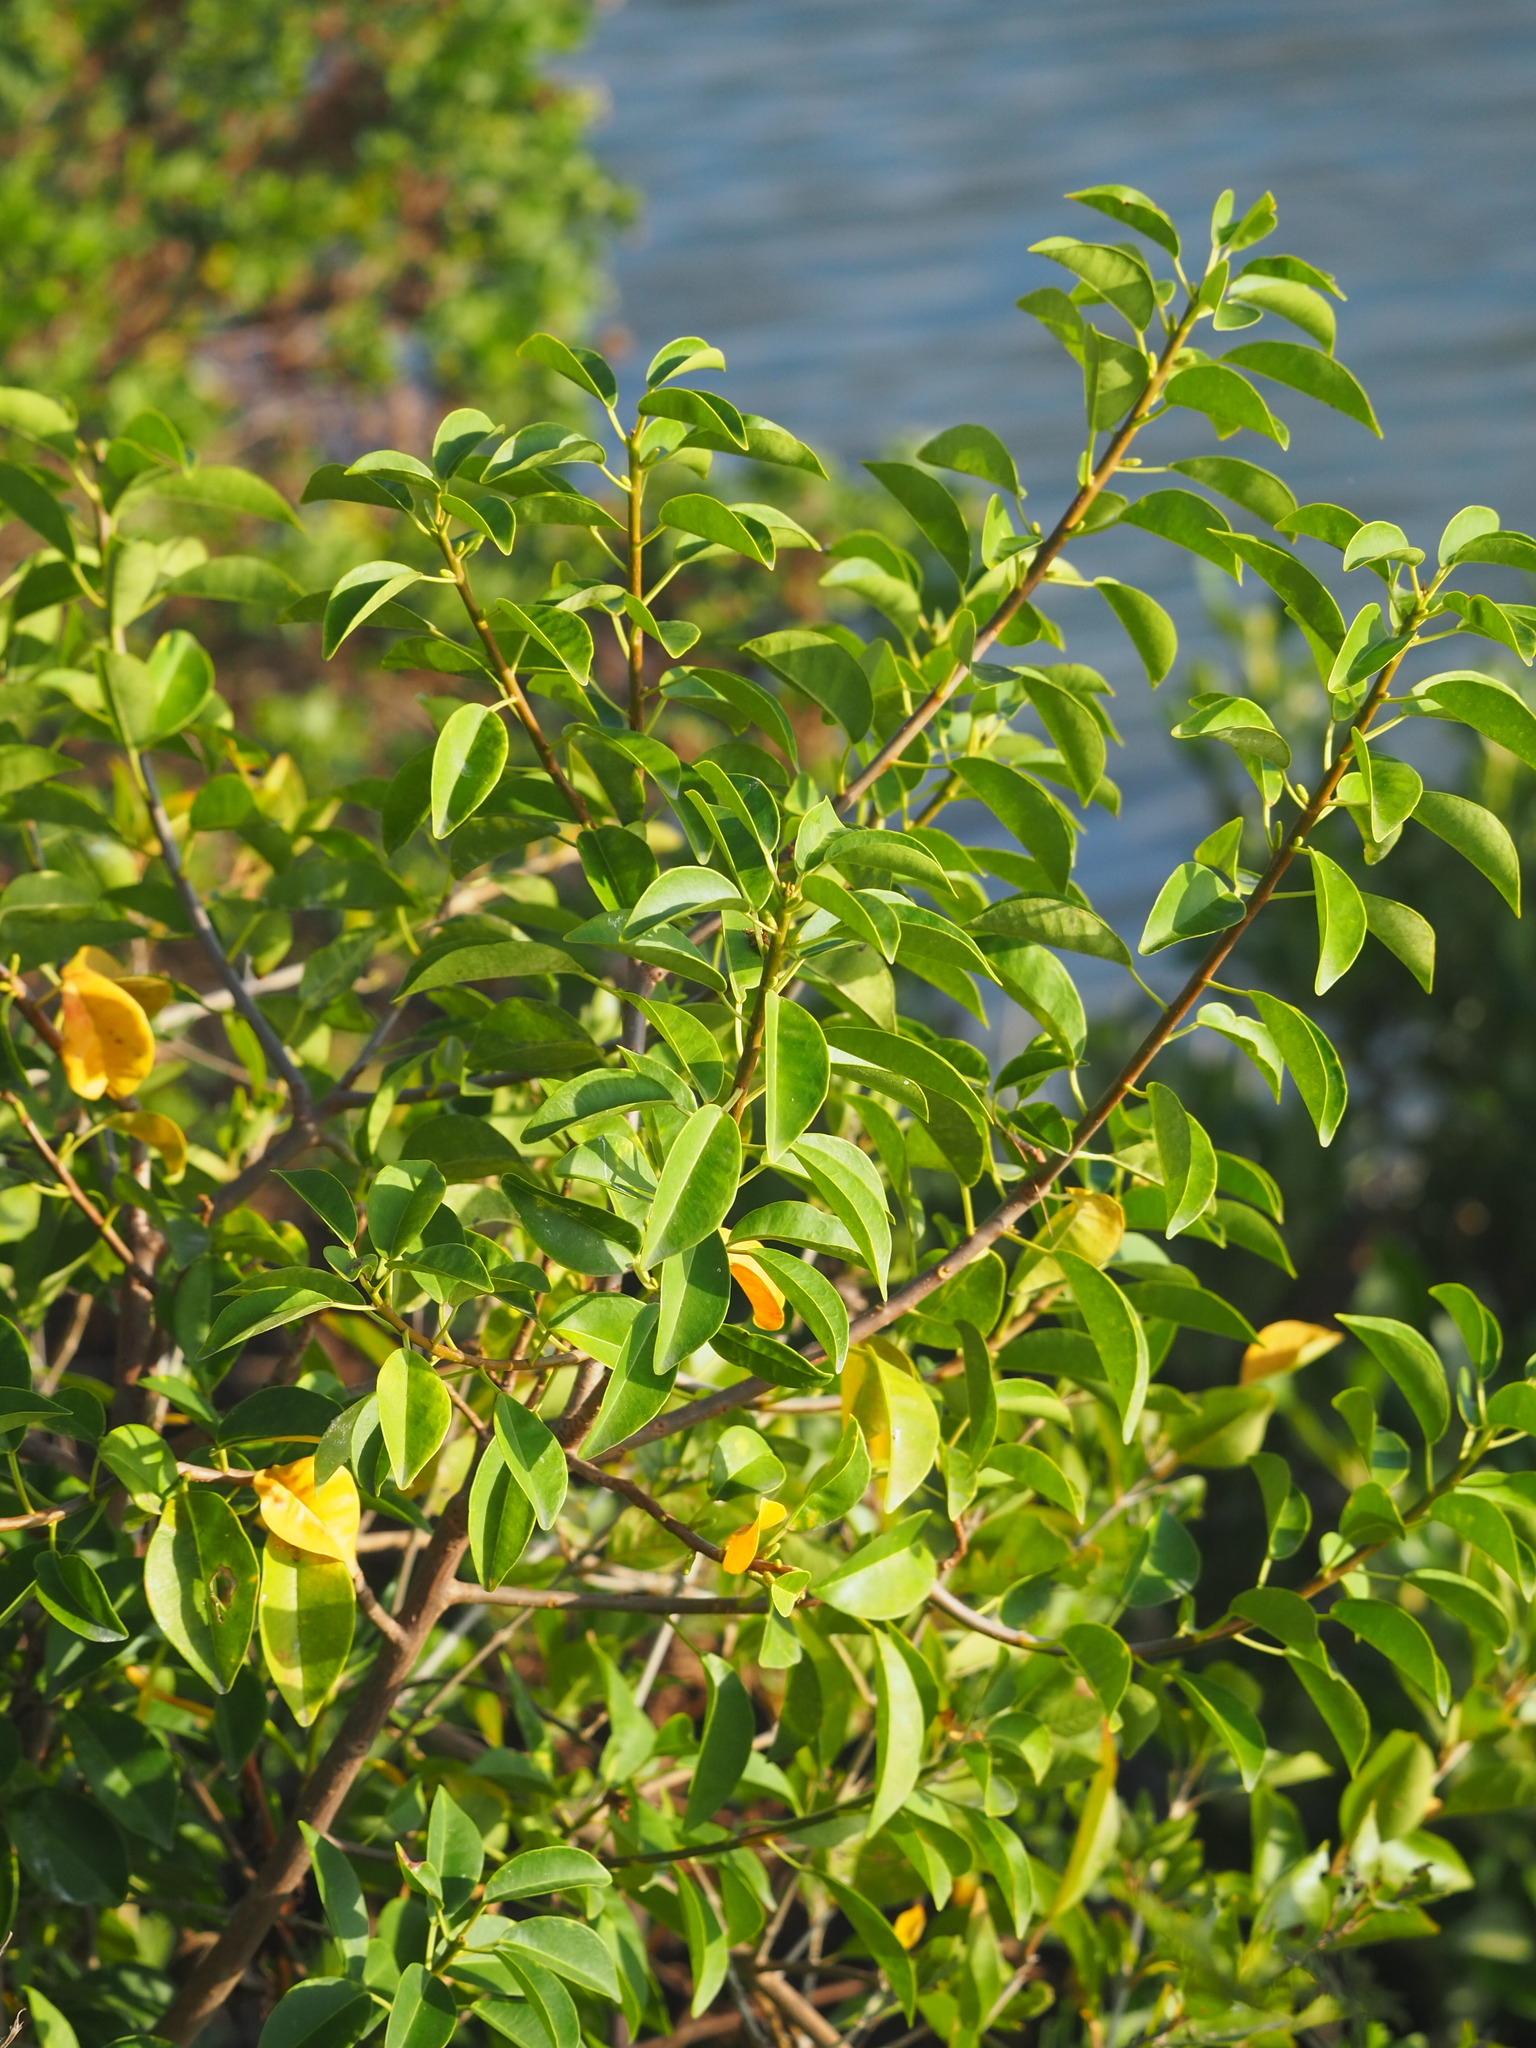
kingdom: Plantae
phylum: Tracheophyta
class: Magnoliopsida
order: Malpighiales
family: Euphorbiaceae
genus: Excoecaria
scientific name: Excoecaria agallocha
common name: River poisontree
